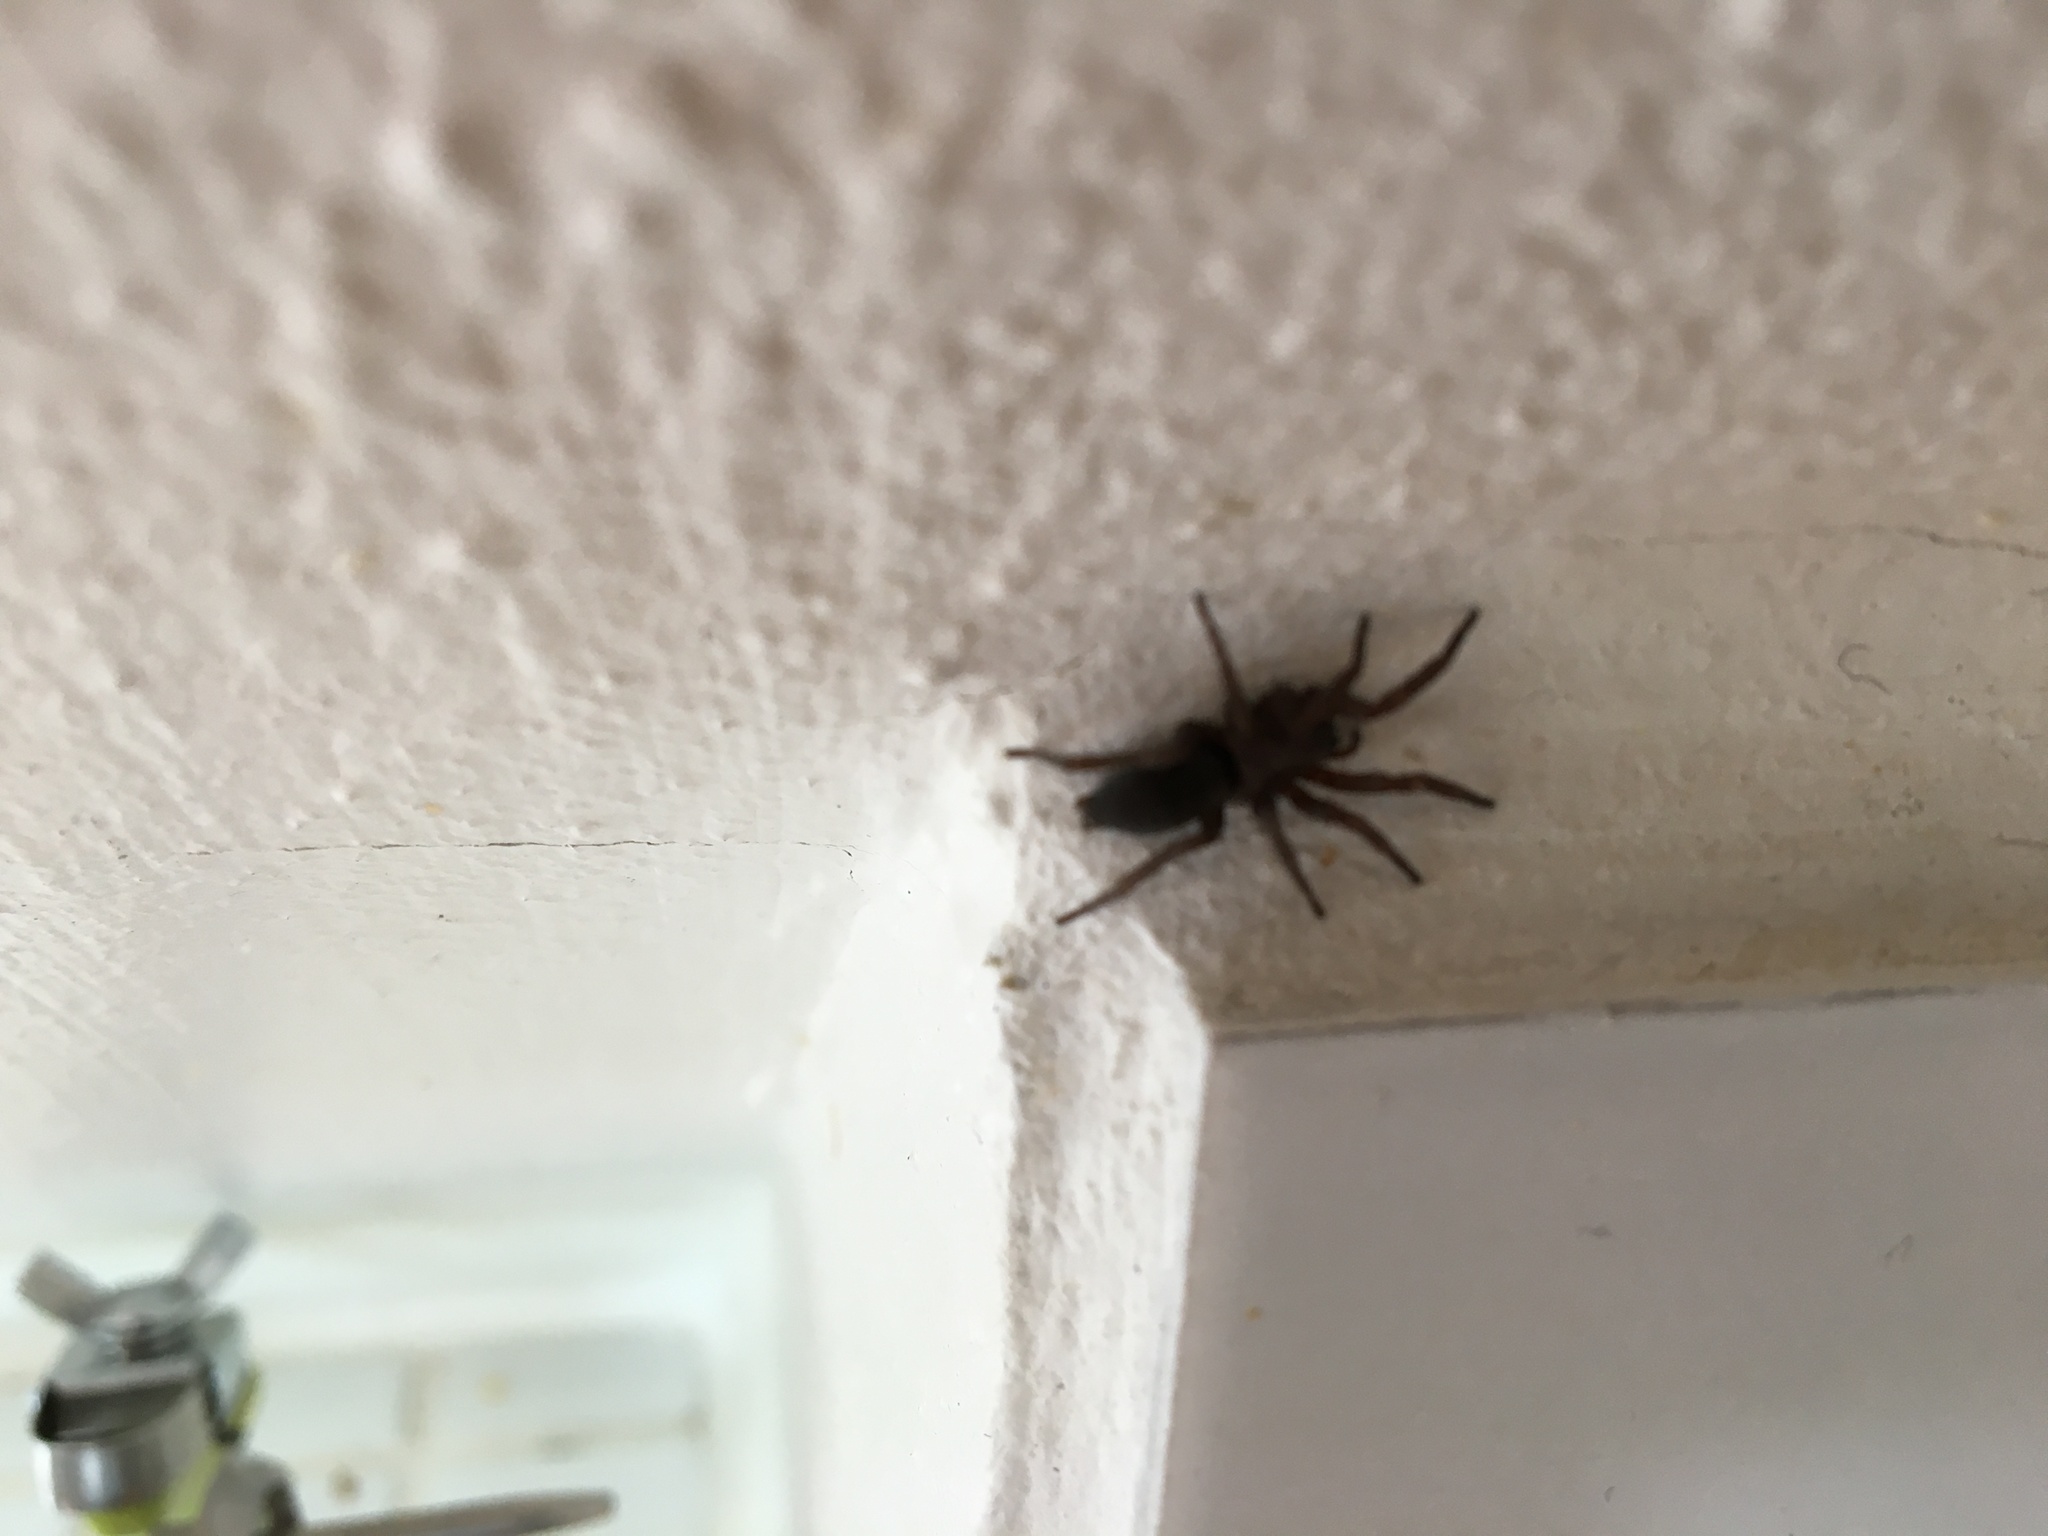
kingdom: Animalia
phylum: Arthropoda
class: Arachnida
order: Araneae
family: Gnaphosidae
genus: Scotophaeus
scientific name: Scotophaeus blackwalli
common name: Mouse spider
